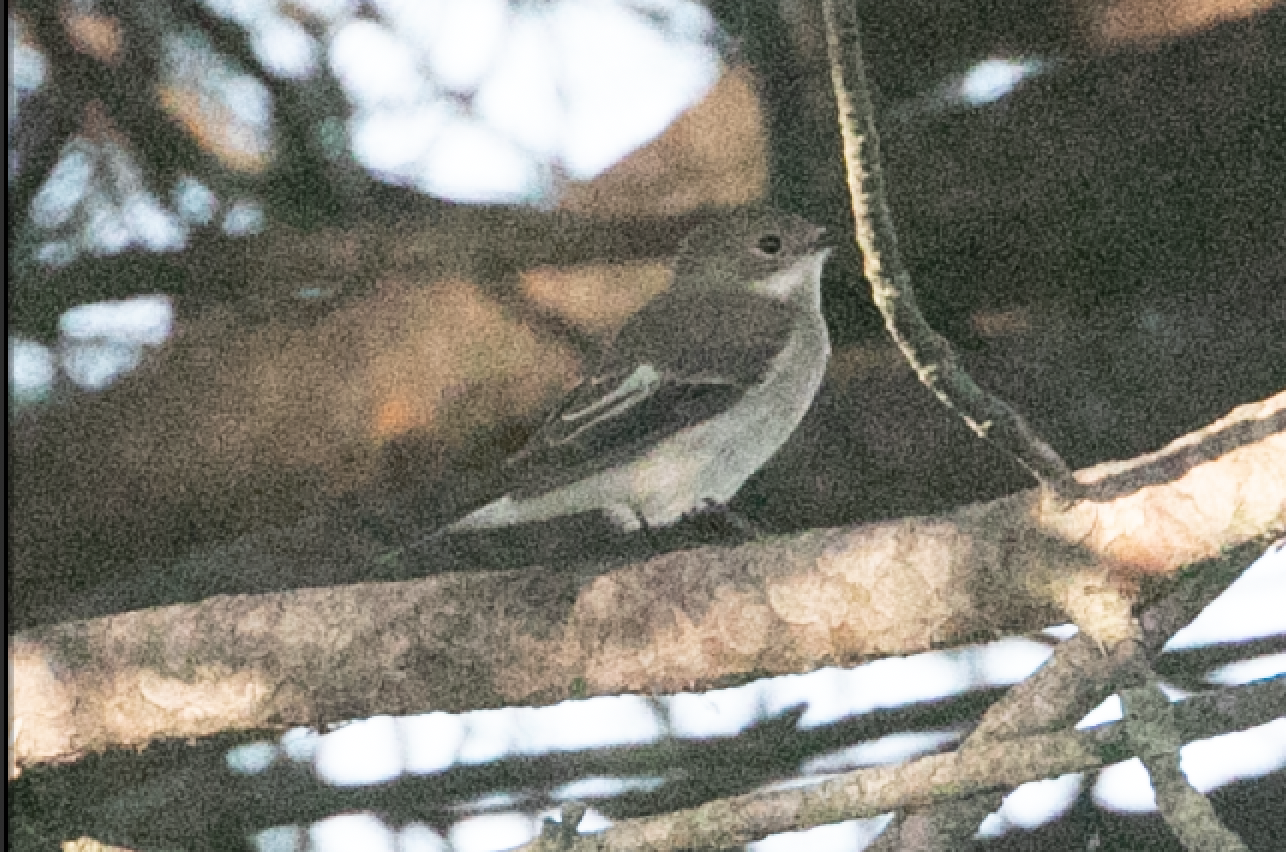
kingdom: Animalia
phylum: Chordata
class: Aves
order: Passeriformes
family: Muscicapidae
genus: Ficedula
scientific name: Ficedula hypoleuca
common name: European pied flycatcher
